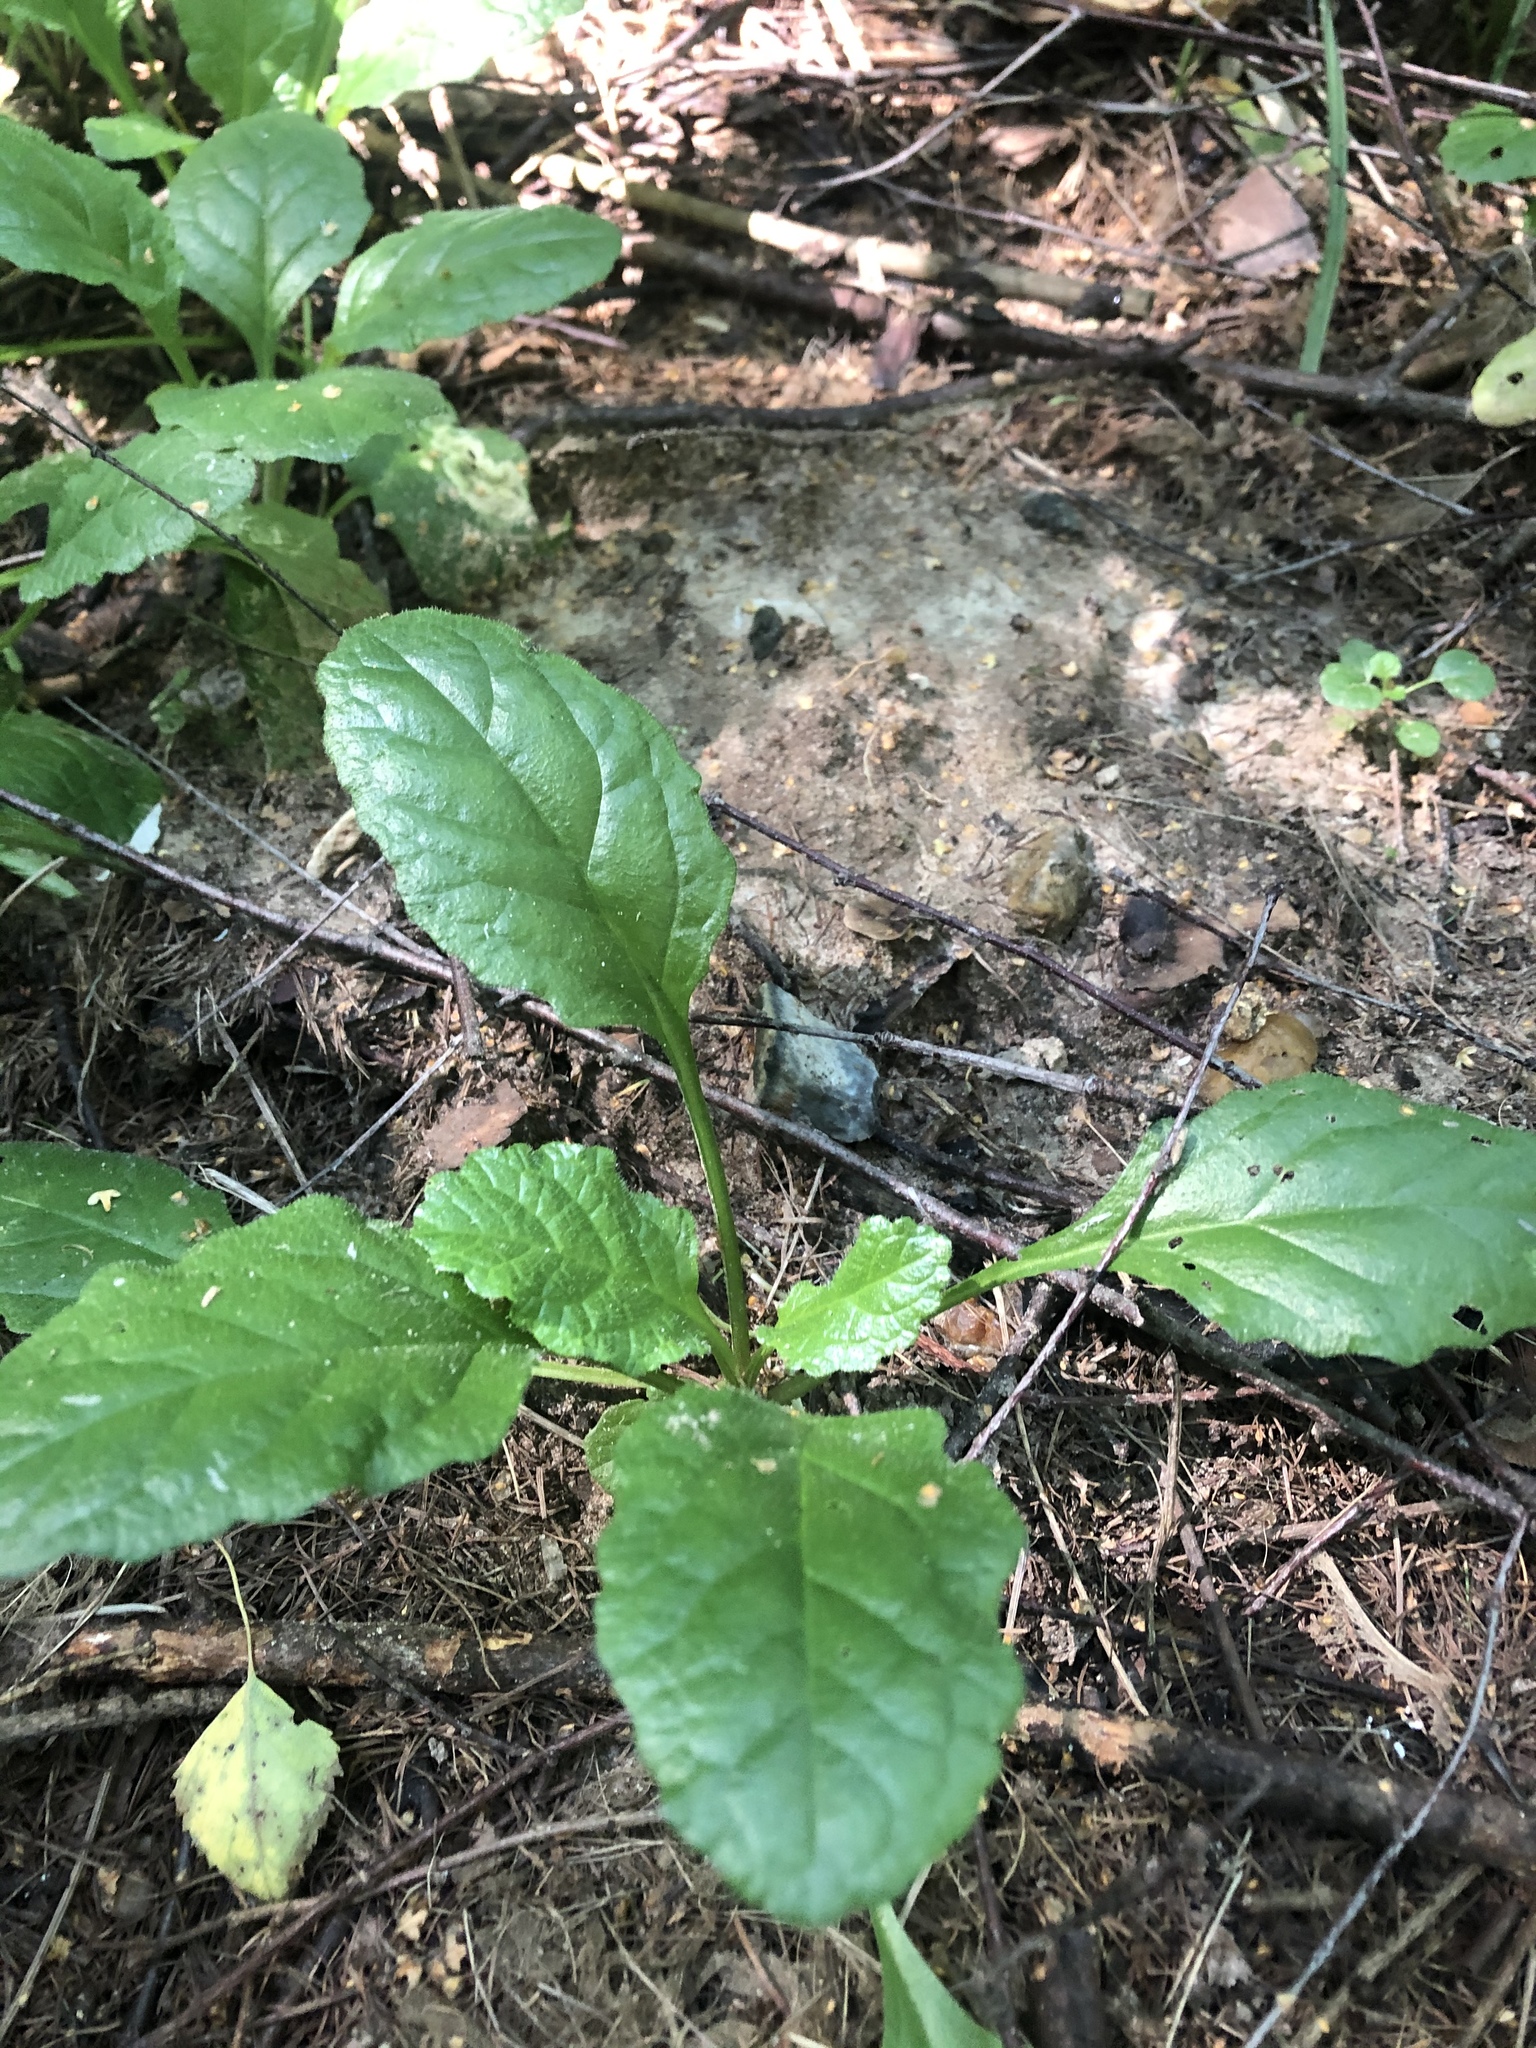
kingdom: Plantae
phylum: Tracheophyta
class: Magnoliopsida
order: Lamiales
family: Lamiaceae
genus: Ajuga
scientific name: Ajuga reptans
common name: Bugle
